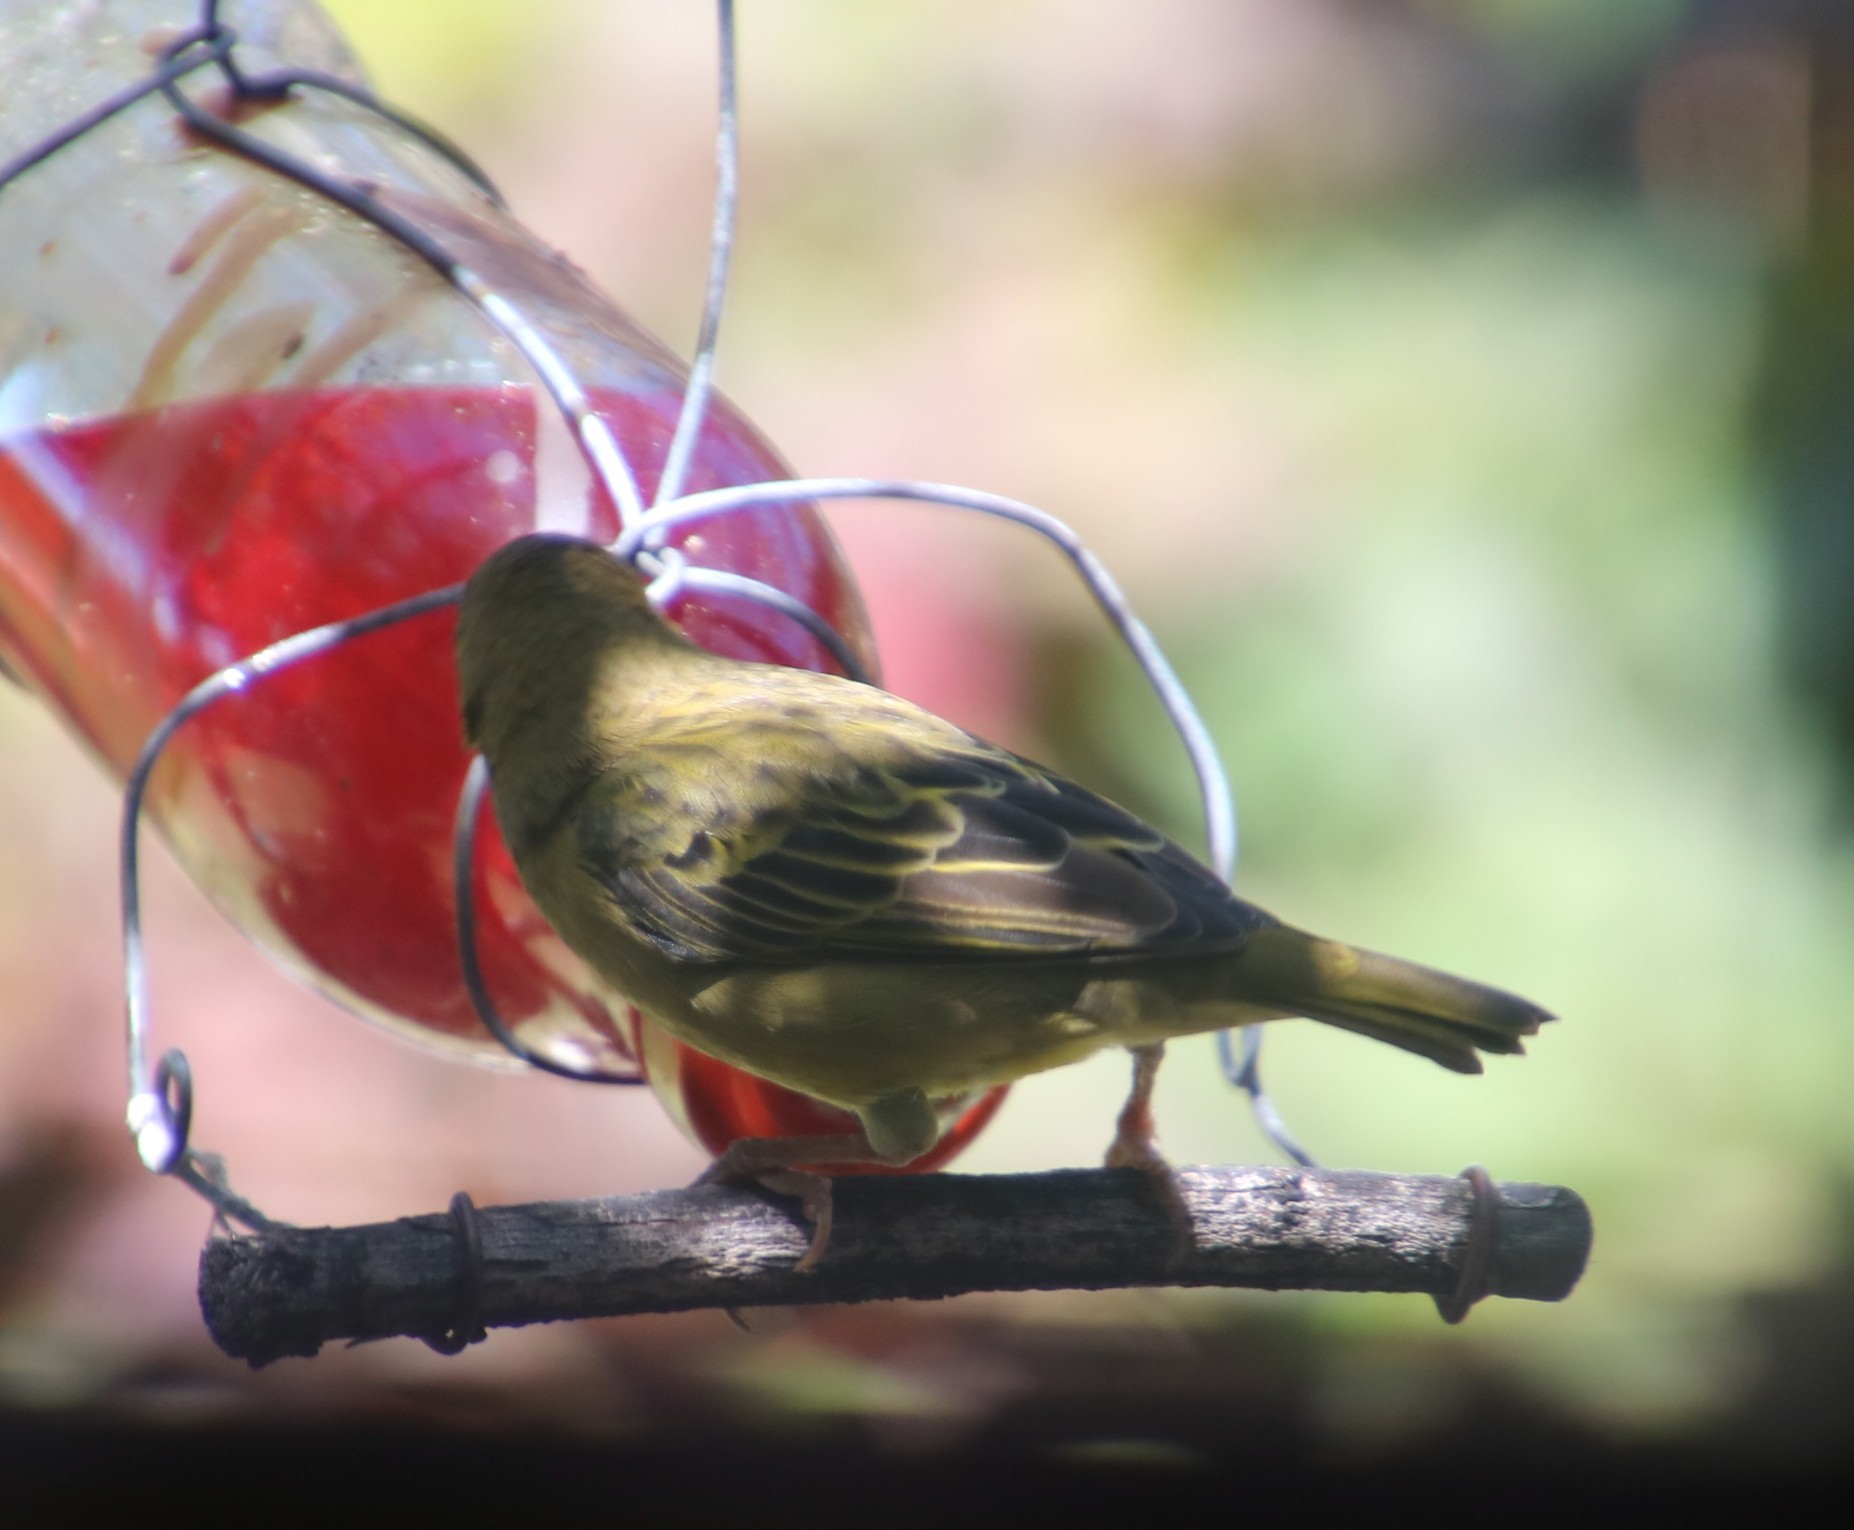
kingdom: Animalia
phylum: Chordata
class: Aves
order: Passeriformes
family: Ploceidae
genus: Ploceus
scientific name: Ploceus capensis
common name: Cape weaver
